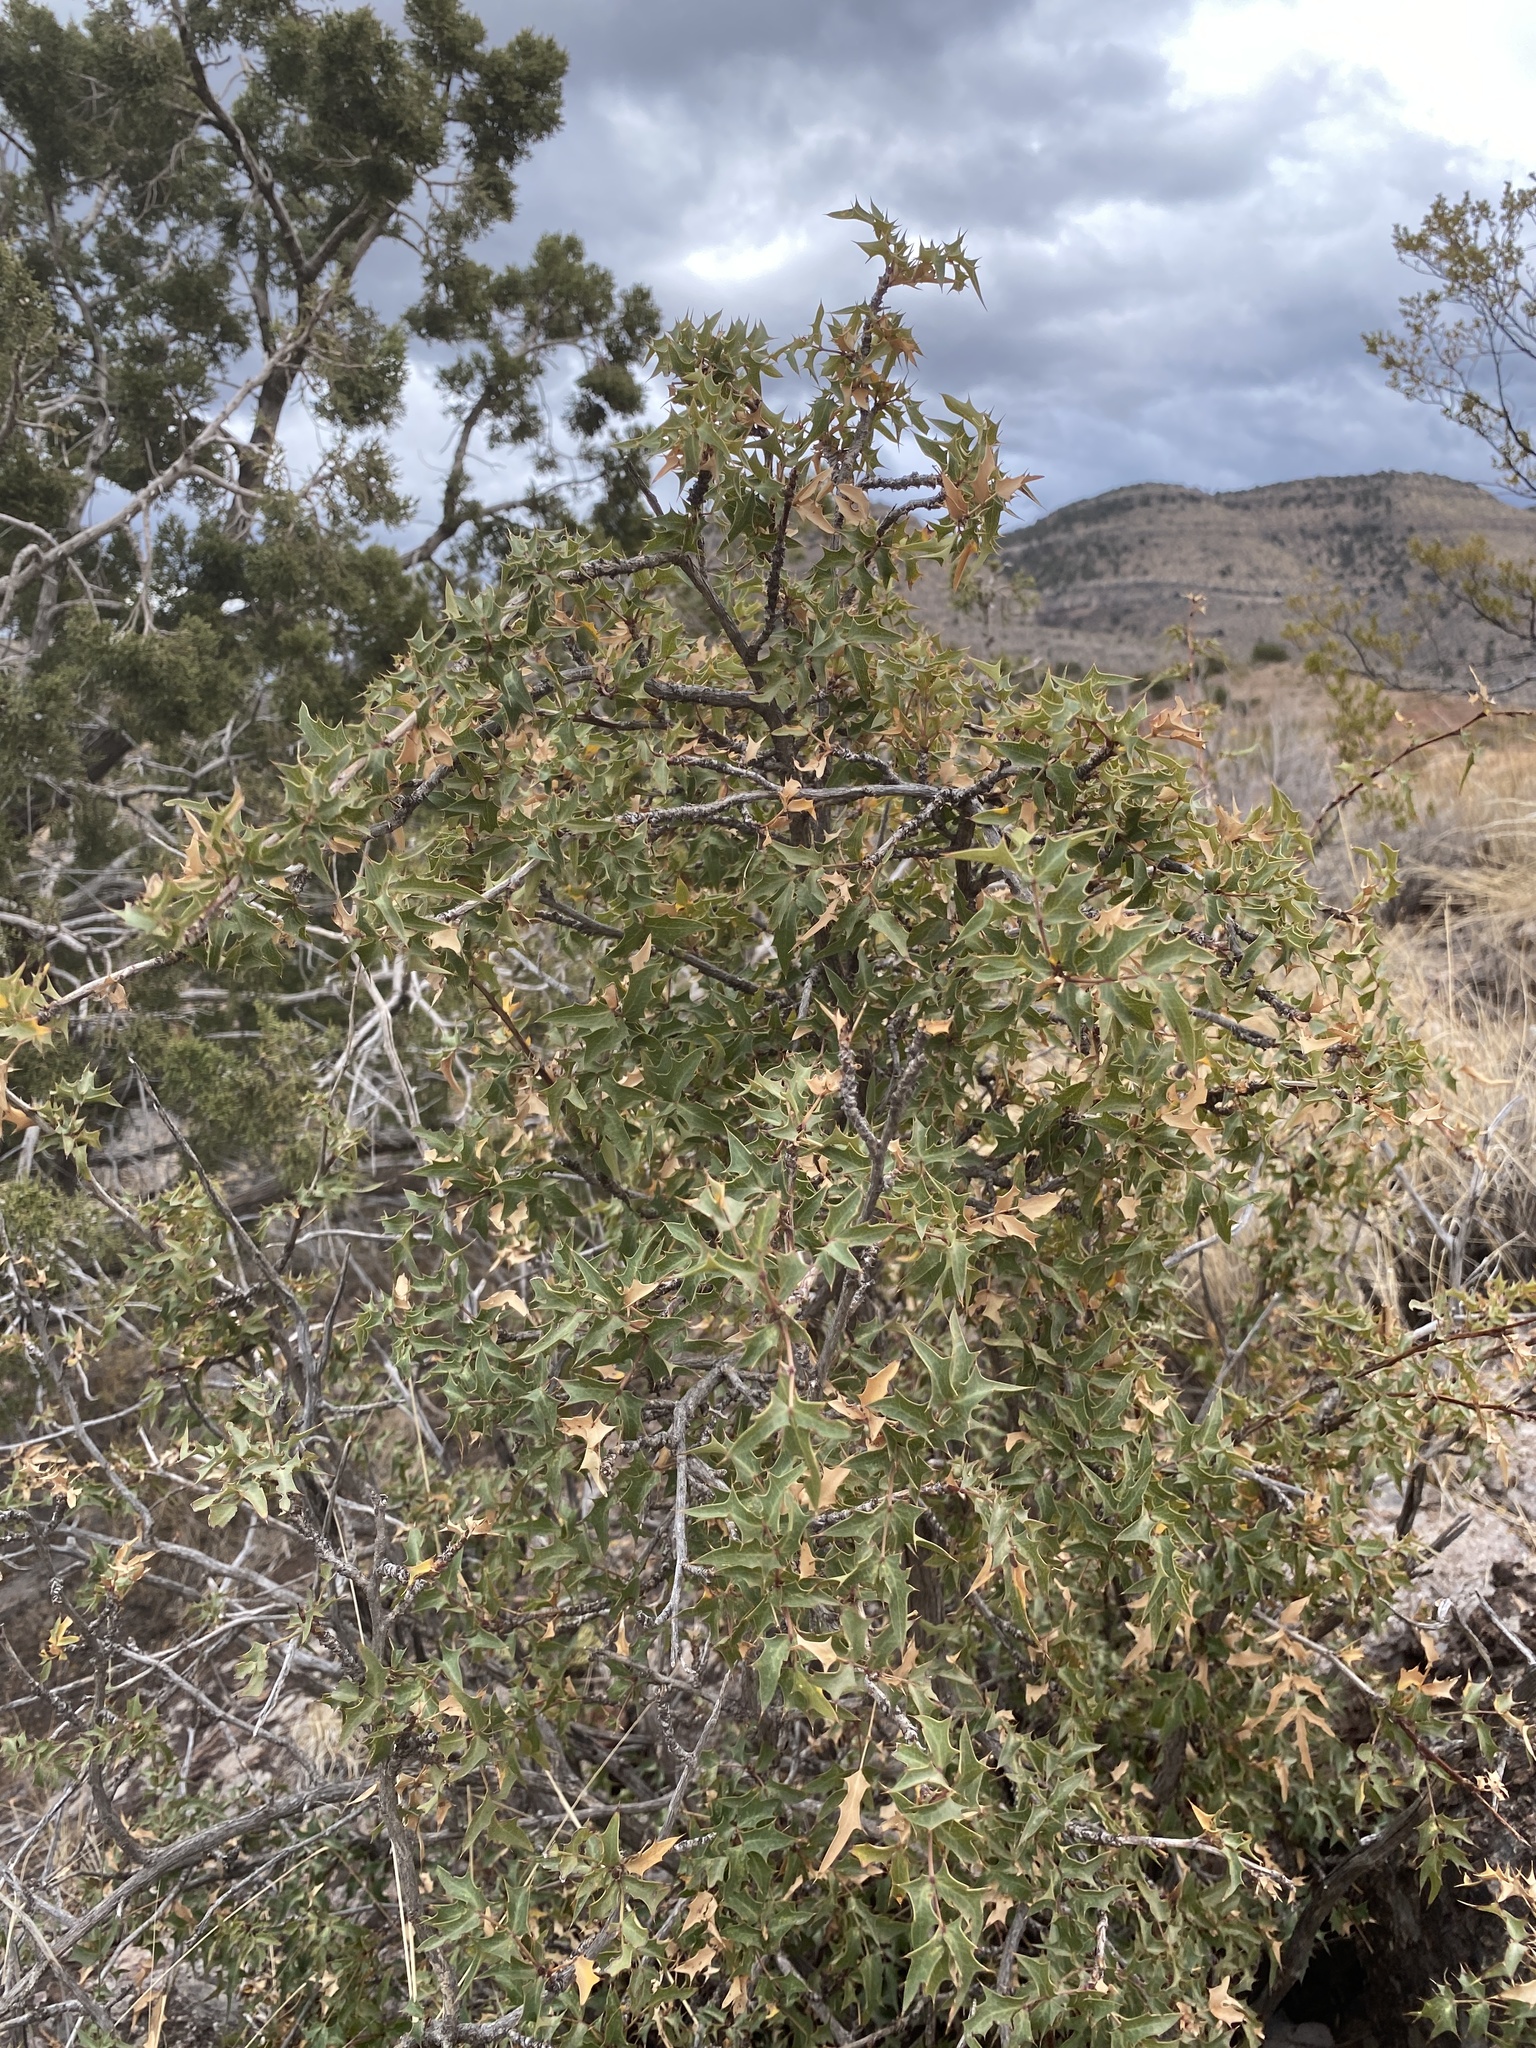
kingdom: Plantae
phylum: Tracheophyta
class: Magnoliopsida
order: Ranunculales
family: Berberidaceae
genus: Alloberberis
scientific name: Alloberberis haematocarpa
